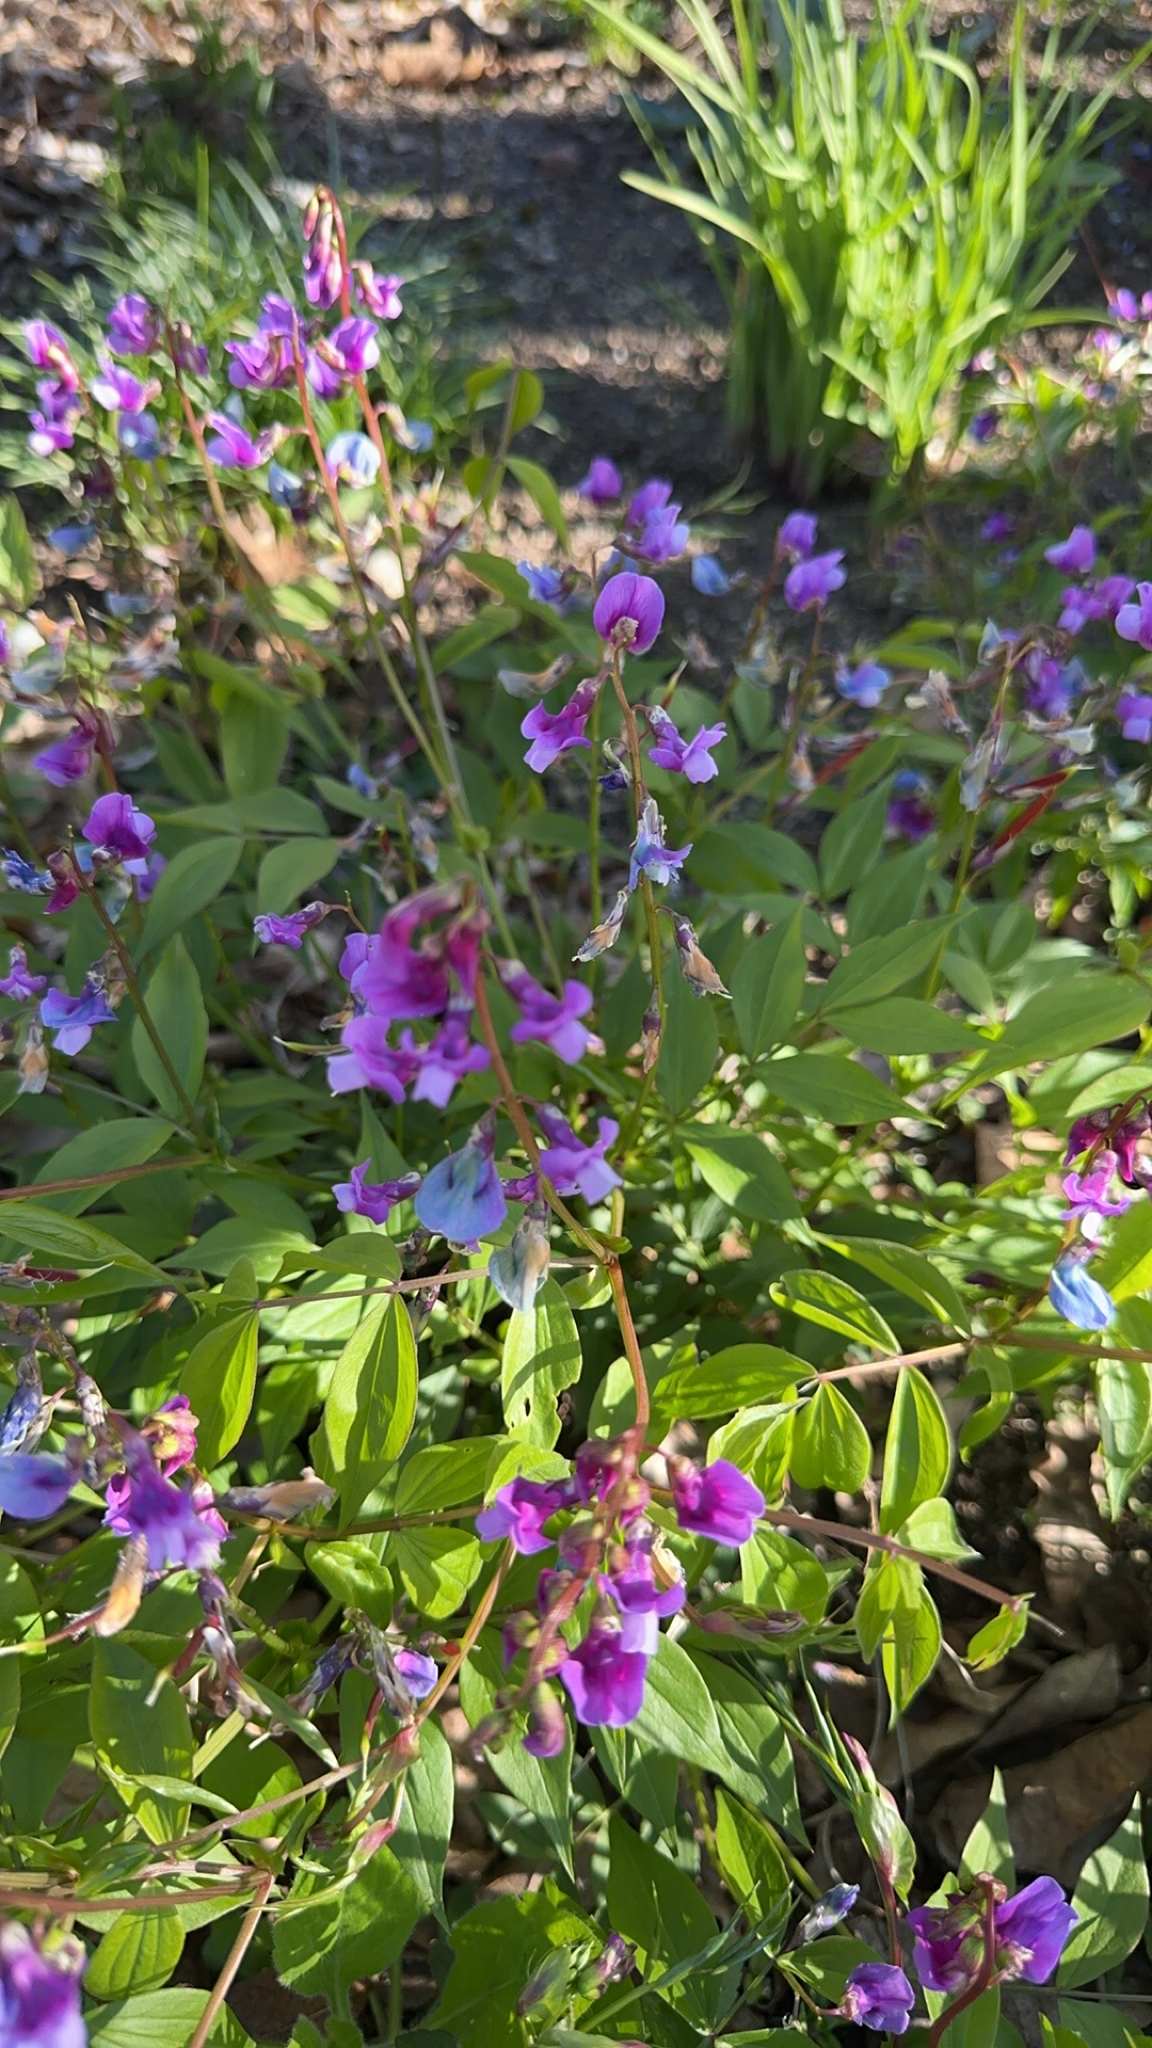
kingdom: Plantae
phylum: Tracheophyta
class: Magnoliopsida
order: Fabales
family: Fabaceae
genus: Lathyrus
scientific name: Lathyrus vernus
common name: Spring pea
